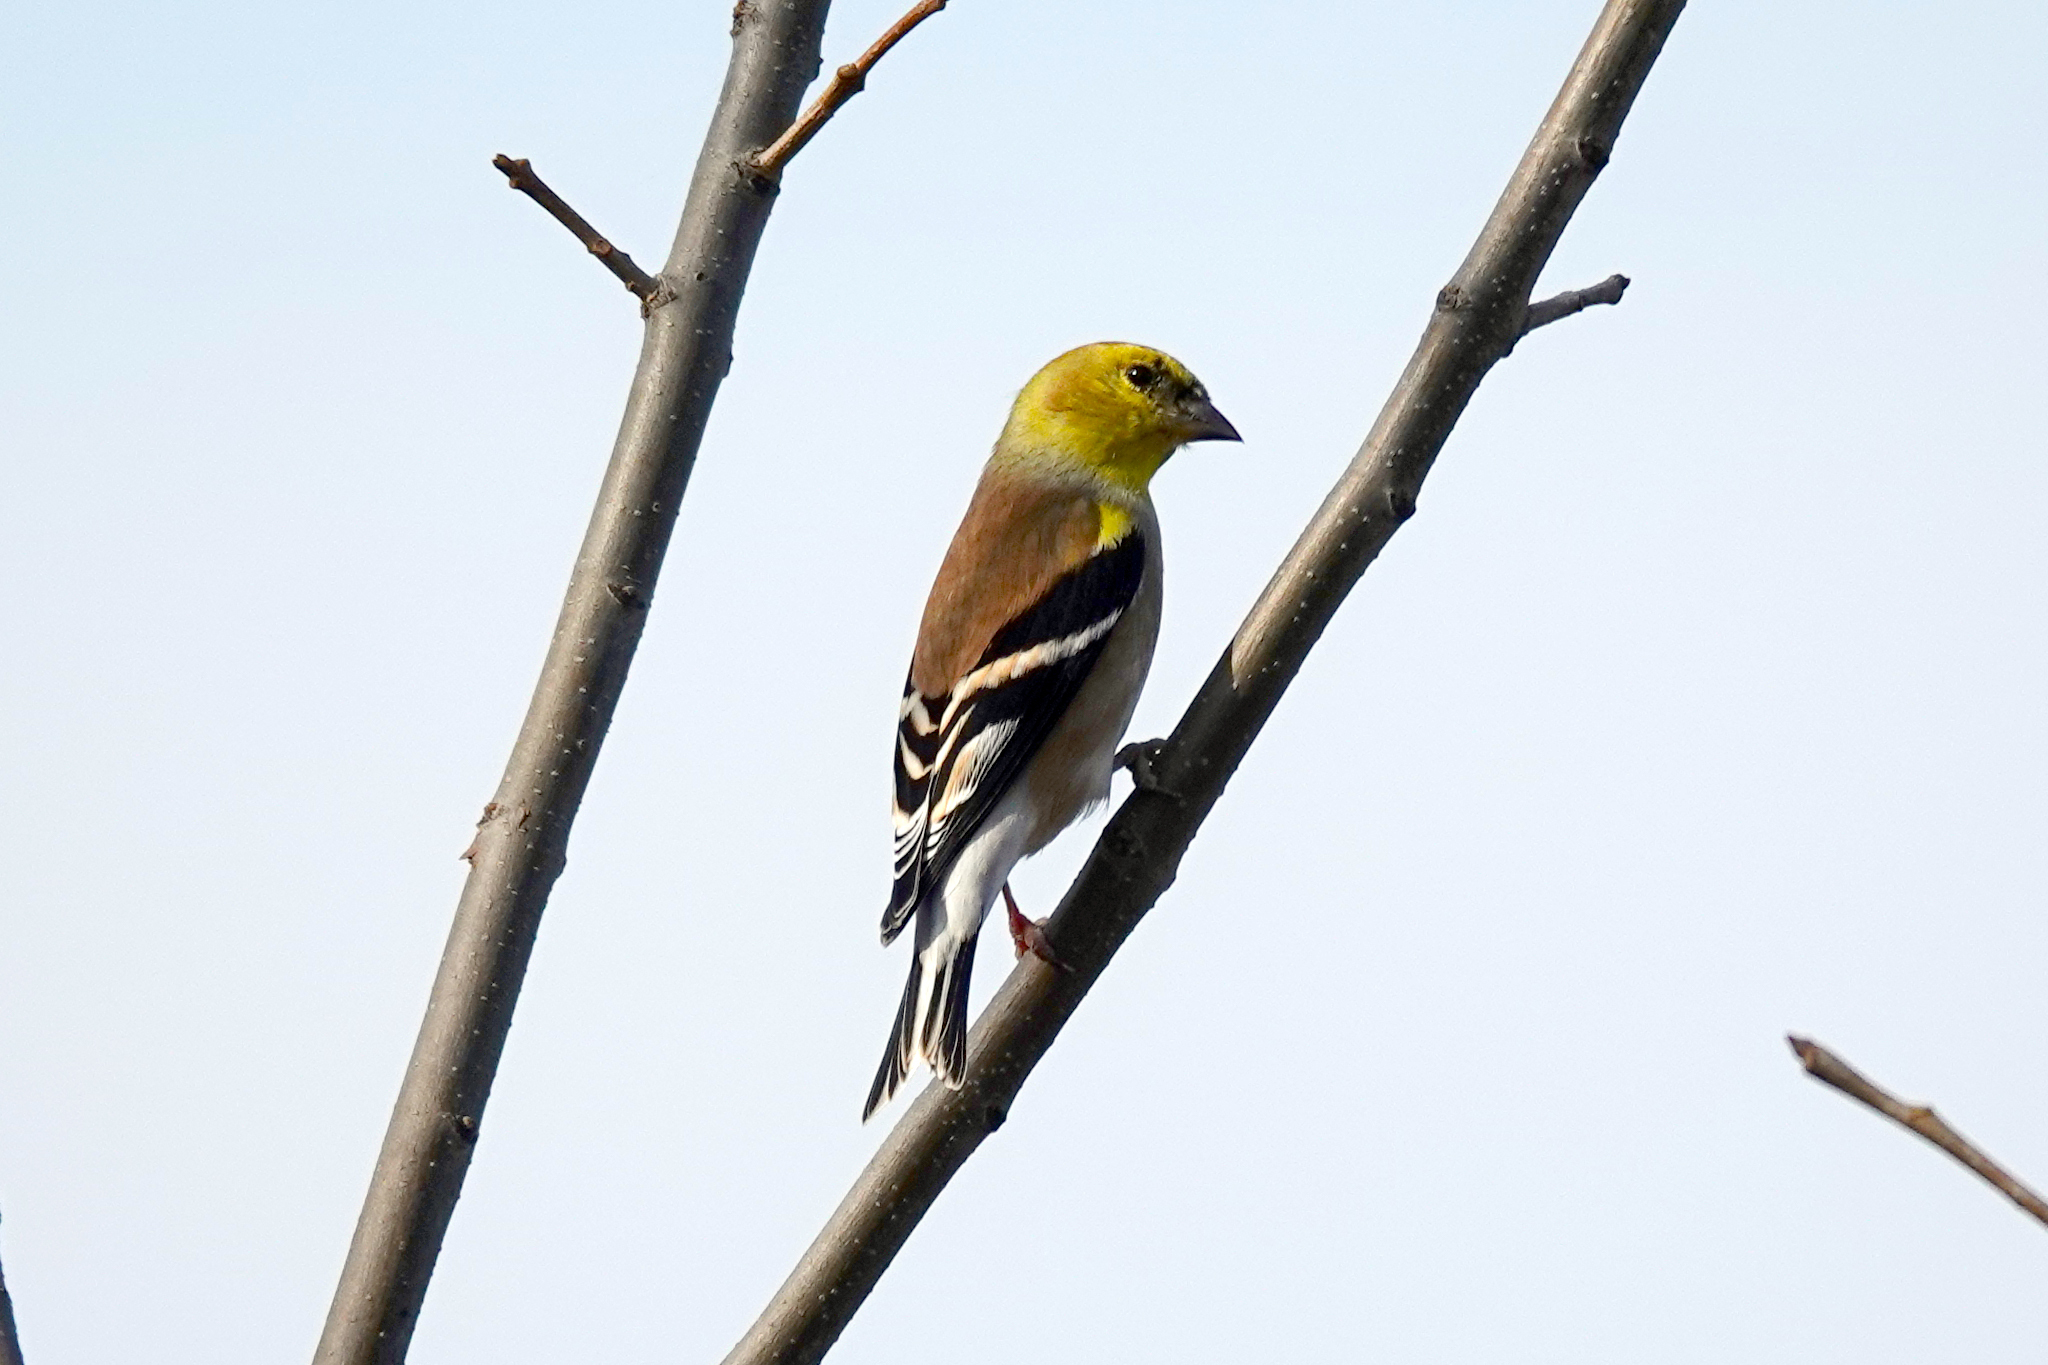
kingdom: Animalia
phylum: Chordata
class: Aves
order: Passeriformes
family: Fringillidae
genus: Spinus
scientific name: Spinus tristis
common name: American goldfinch
